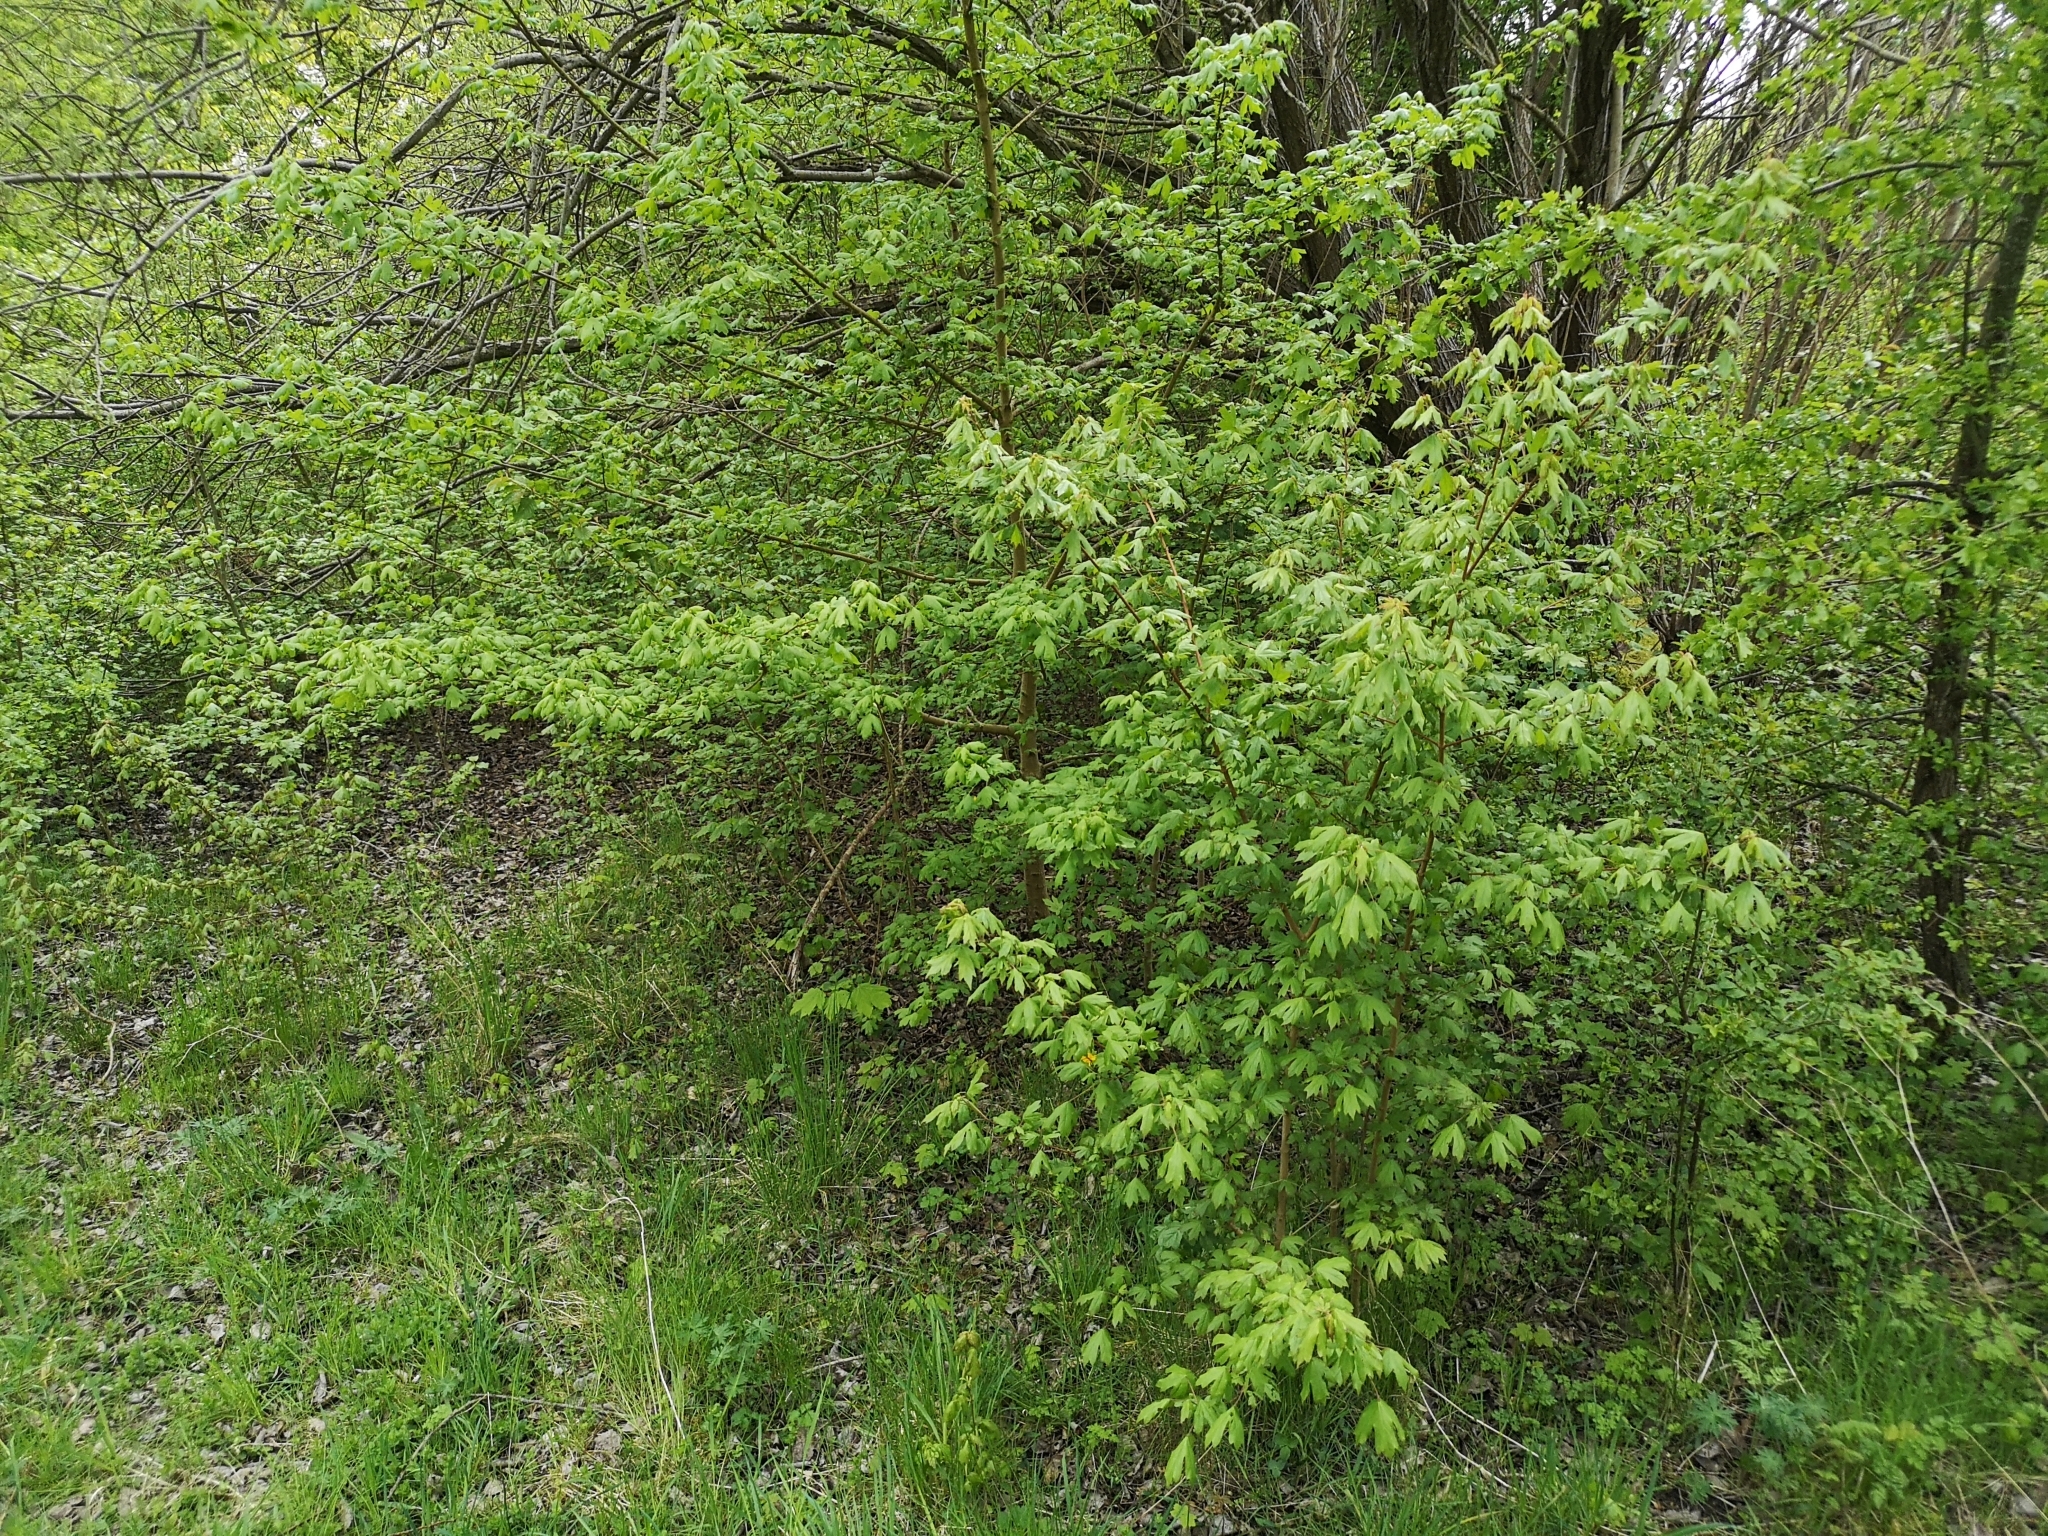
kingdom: Plantae
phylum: Tracheophyta
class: Magnoliopsida
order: Sapindales
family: Sapindaceae
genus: Acer
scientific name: Acer campestre
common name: Field maple
